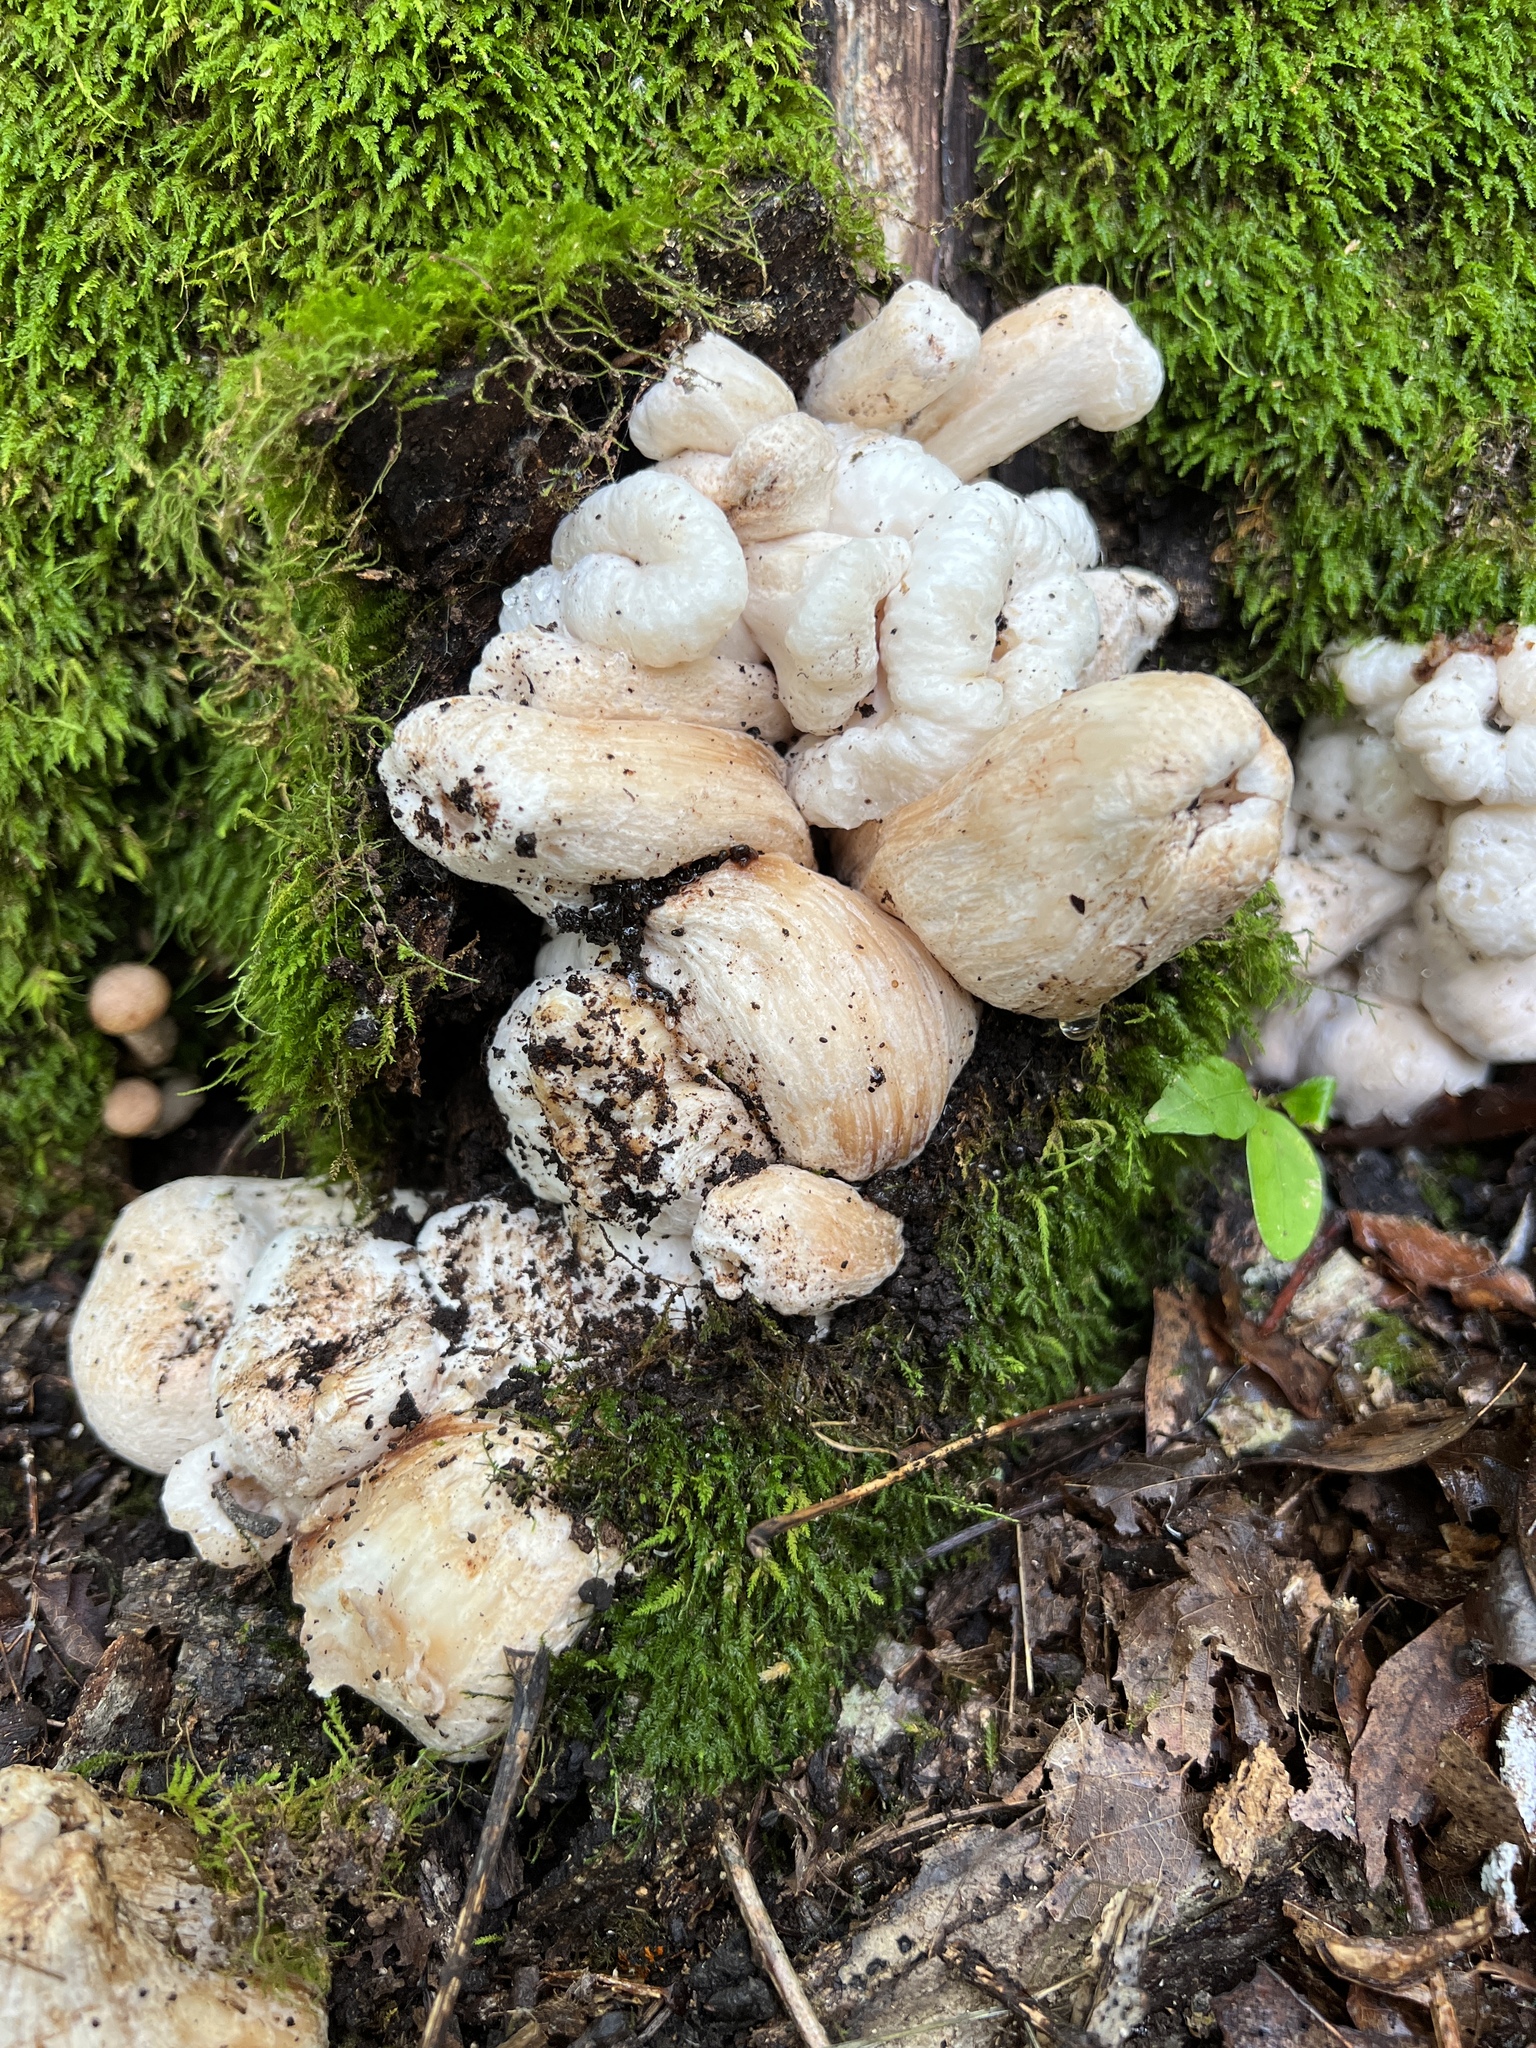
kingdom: Fungi
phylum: Basidiomycota
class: Agaricomycetes
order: Agaricales
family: Entolomataceae
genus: Entoloma
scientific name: Entoloma abortivum
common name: Aborted entoloma
